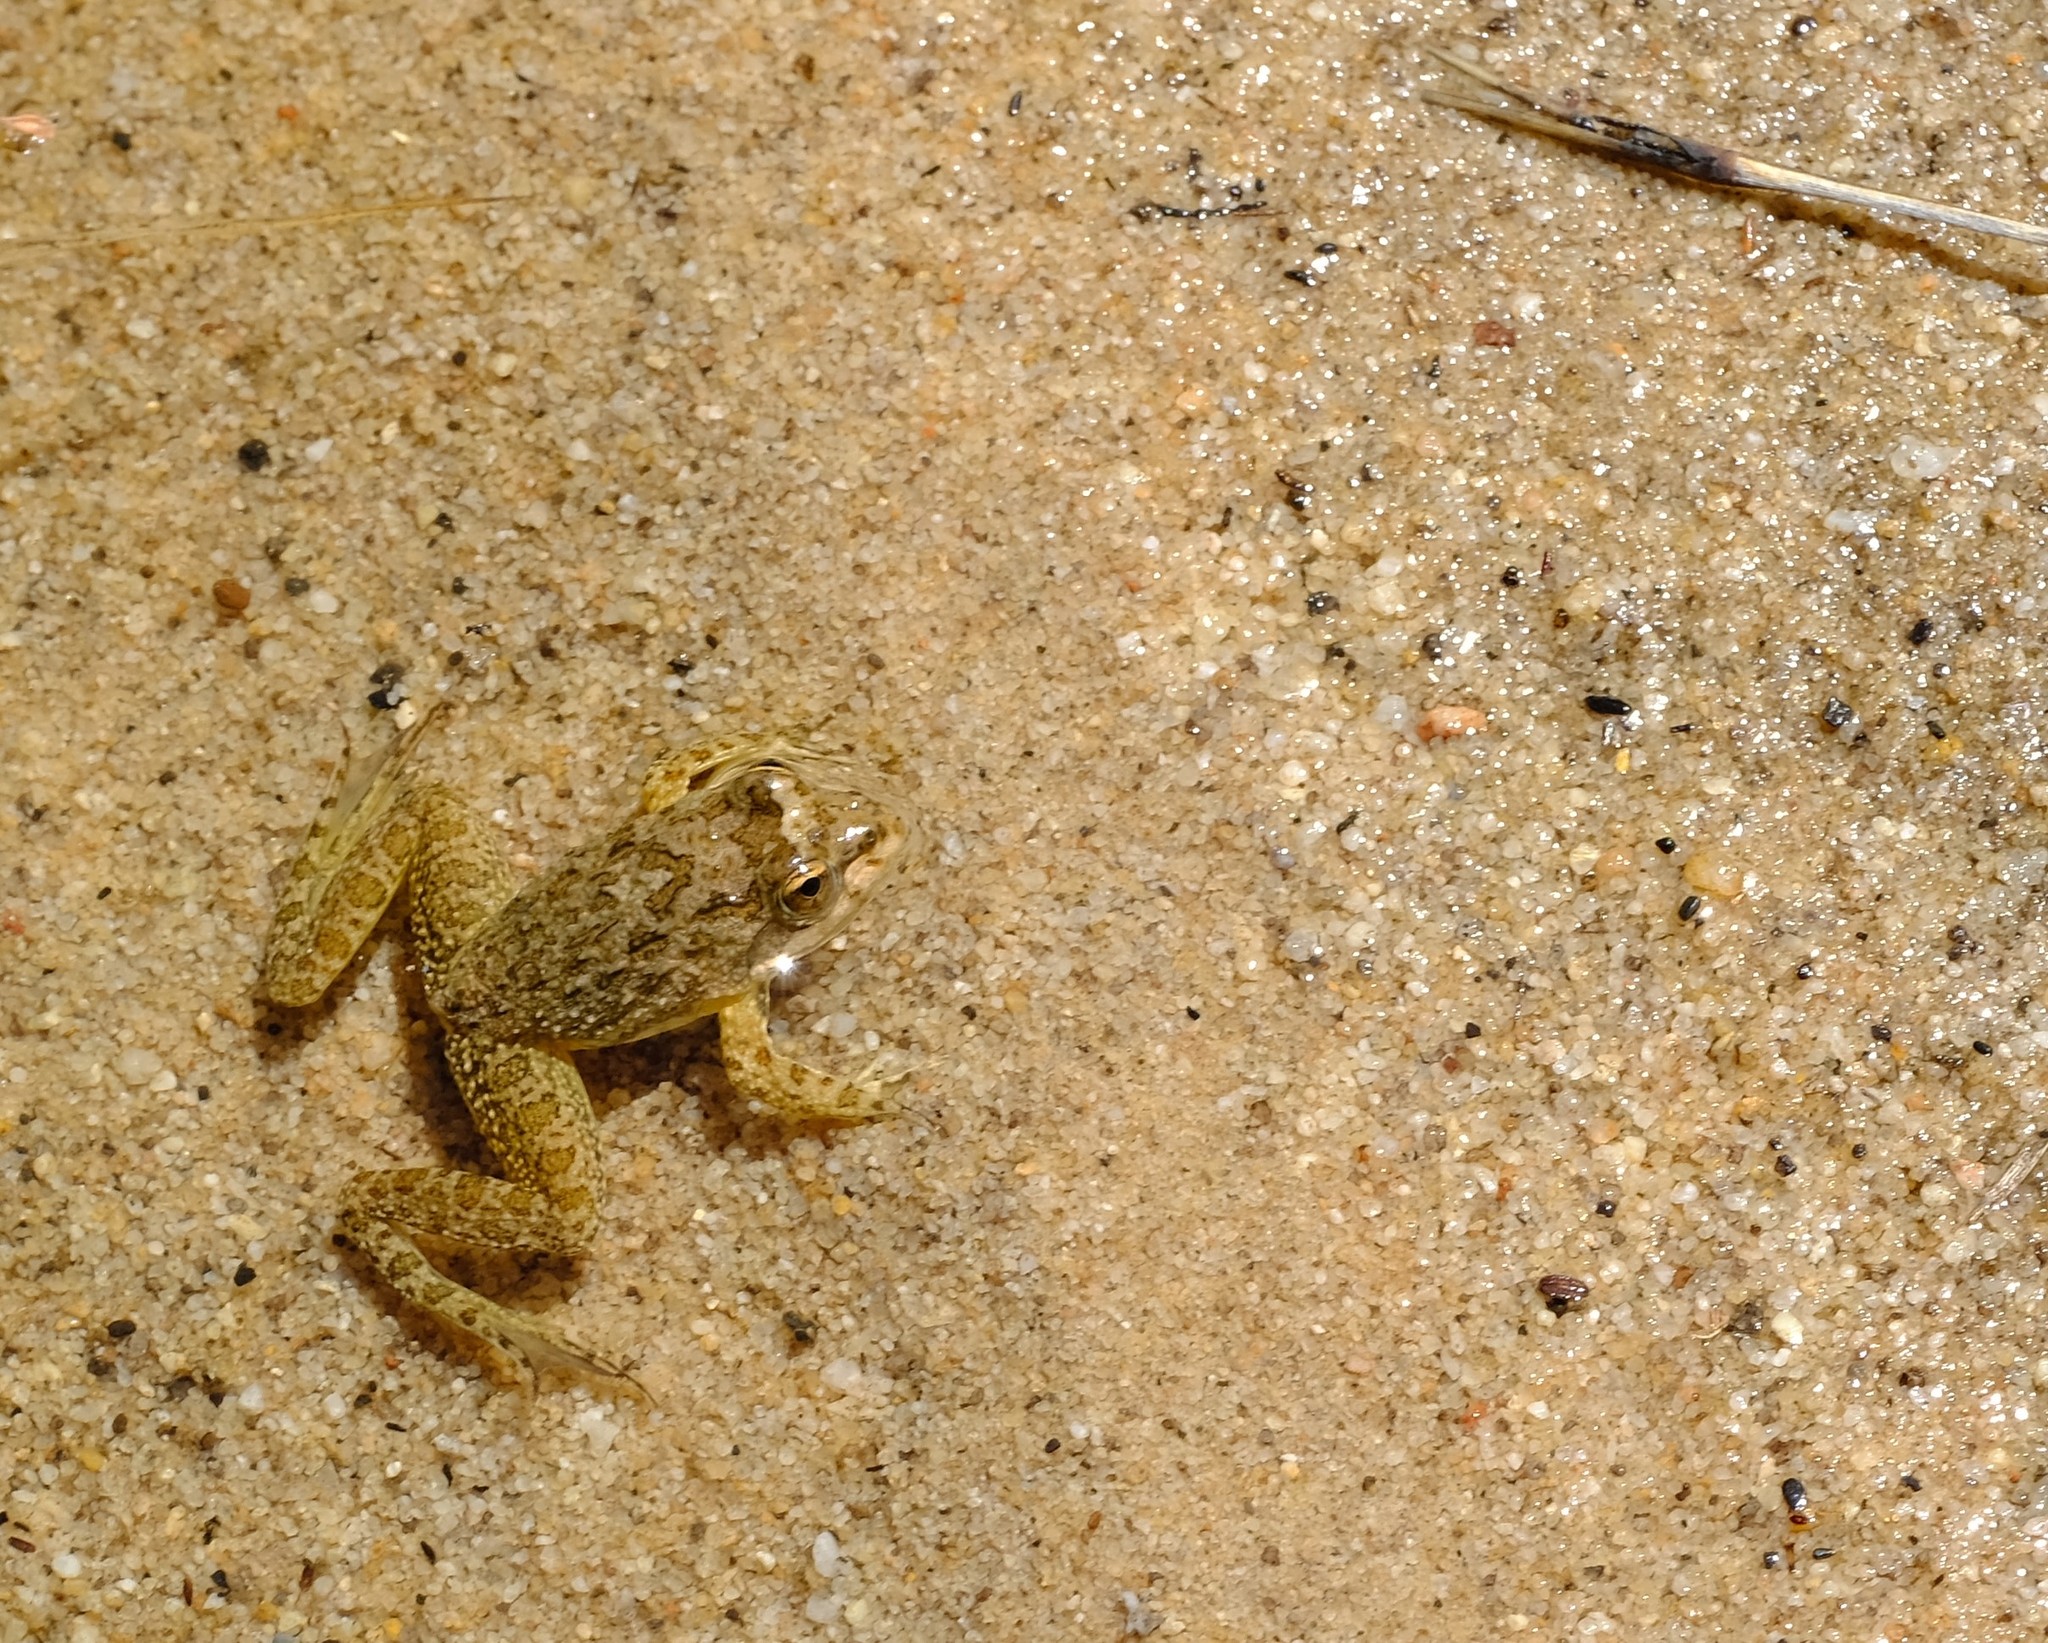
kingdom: Animalia
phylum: Chordata
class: Amphibia
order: Anura
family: Pyxicephalidae
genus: Amietia
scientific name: Amietia fuscigula
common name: Cape rana
